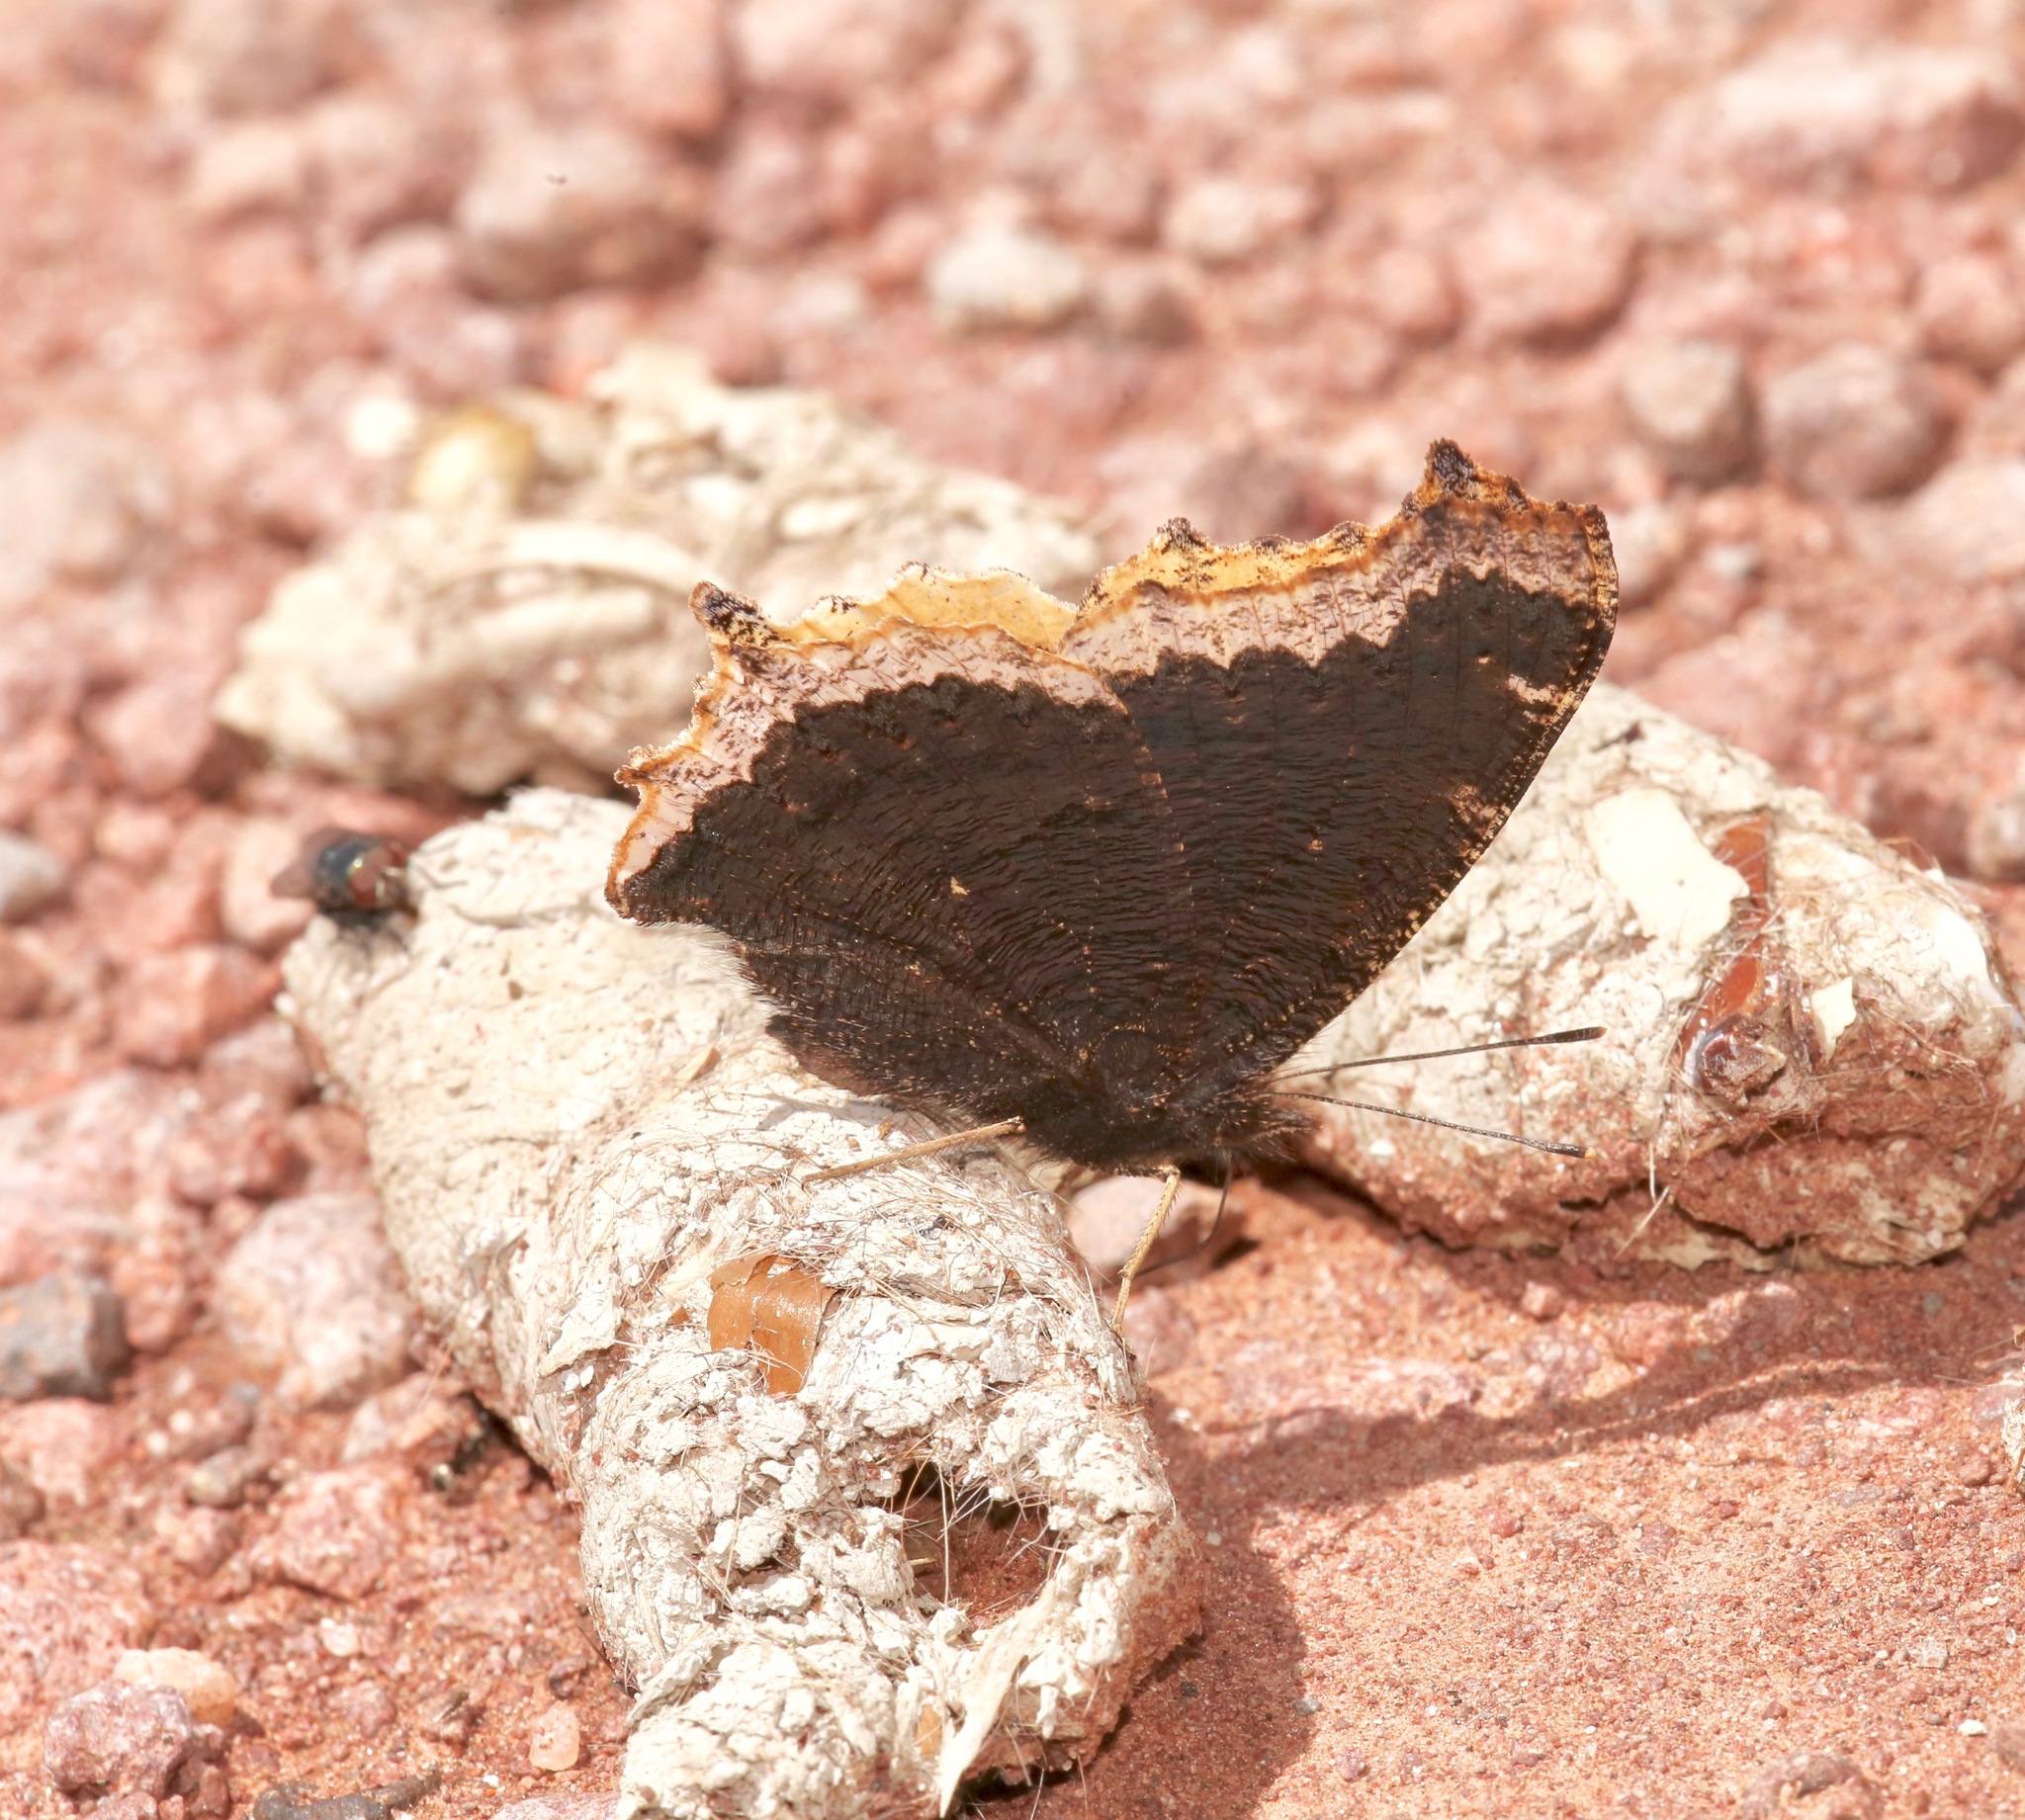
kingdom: Animalia
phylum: Arthropoda
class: Insecta
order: Lepidoptera
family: Nymphalidae
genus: Nymphalis
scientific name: Nymphalis antiopa
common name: Camberwell beauty
